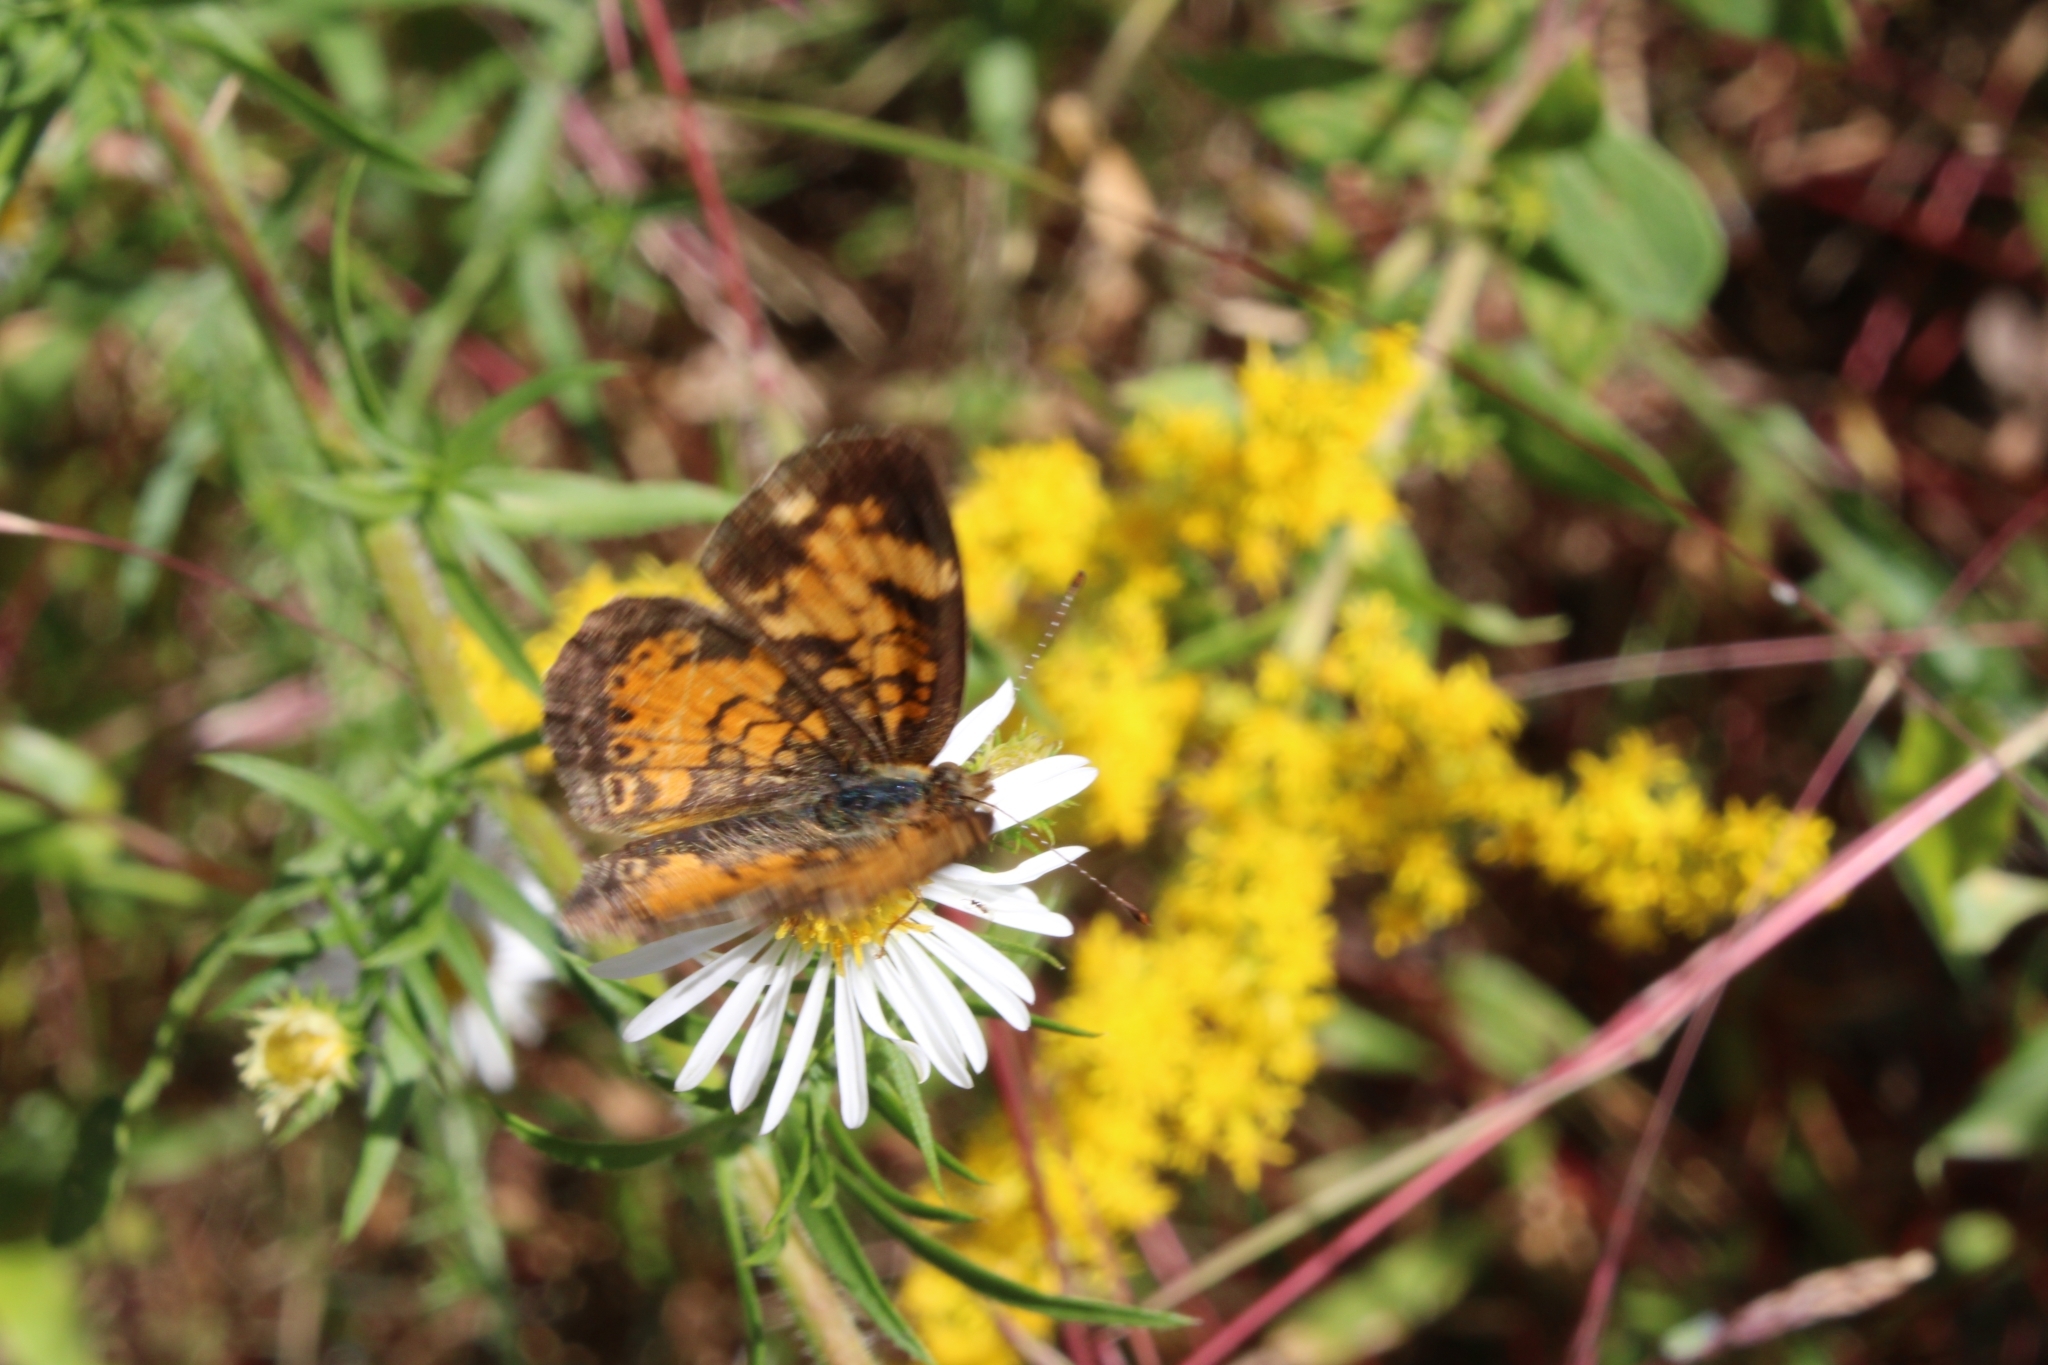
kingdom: Animalia
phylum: Arthropoda
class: Insecta
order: Lepidoptera
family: Nymphalidae
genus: Phyciodes
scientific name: Phyciodes tharos
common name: Pearl crescent
